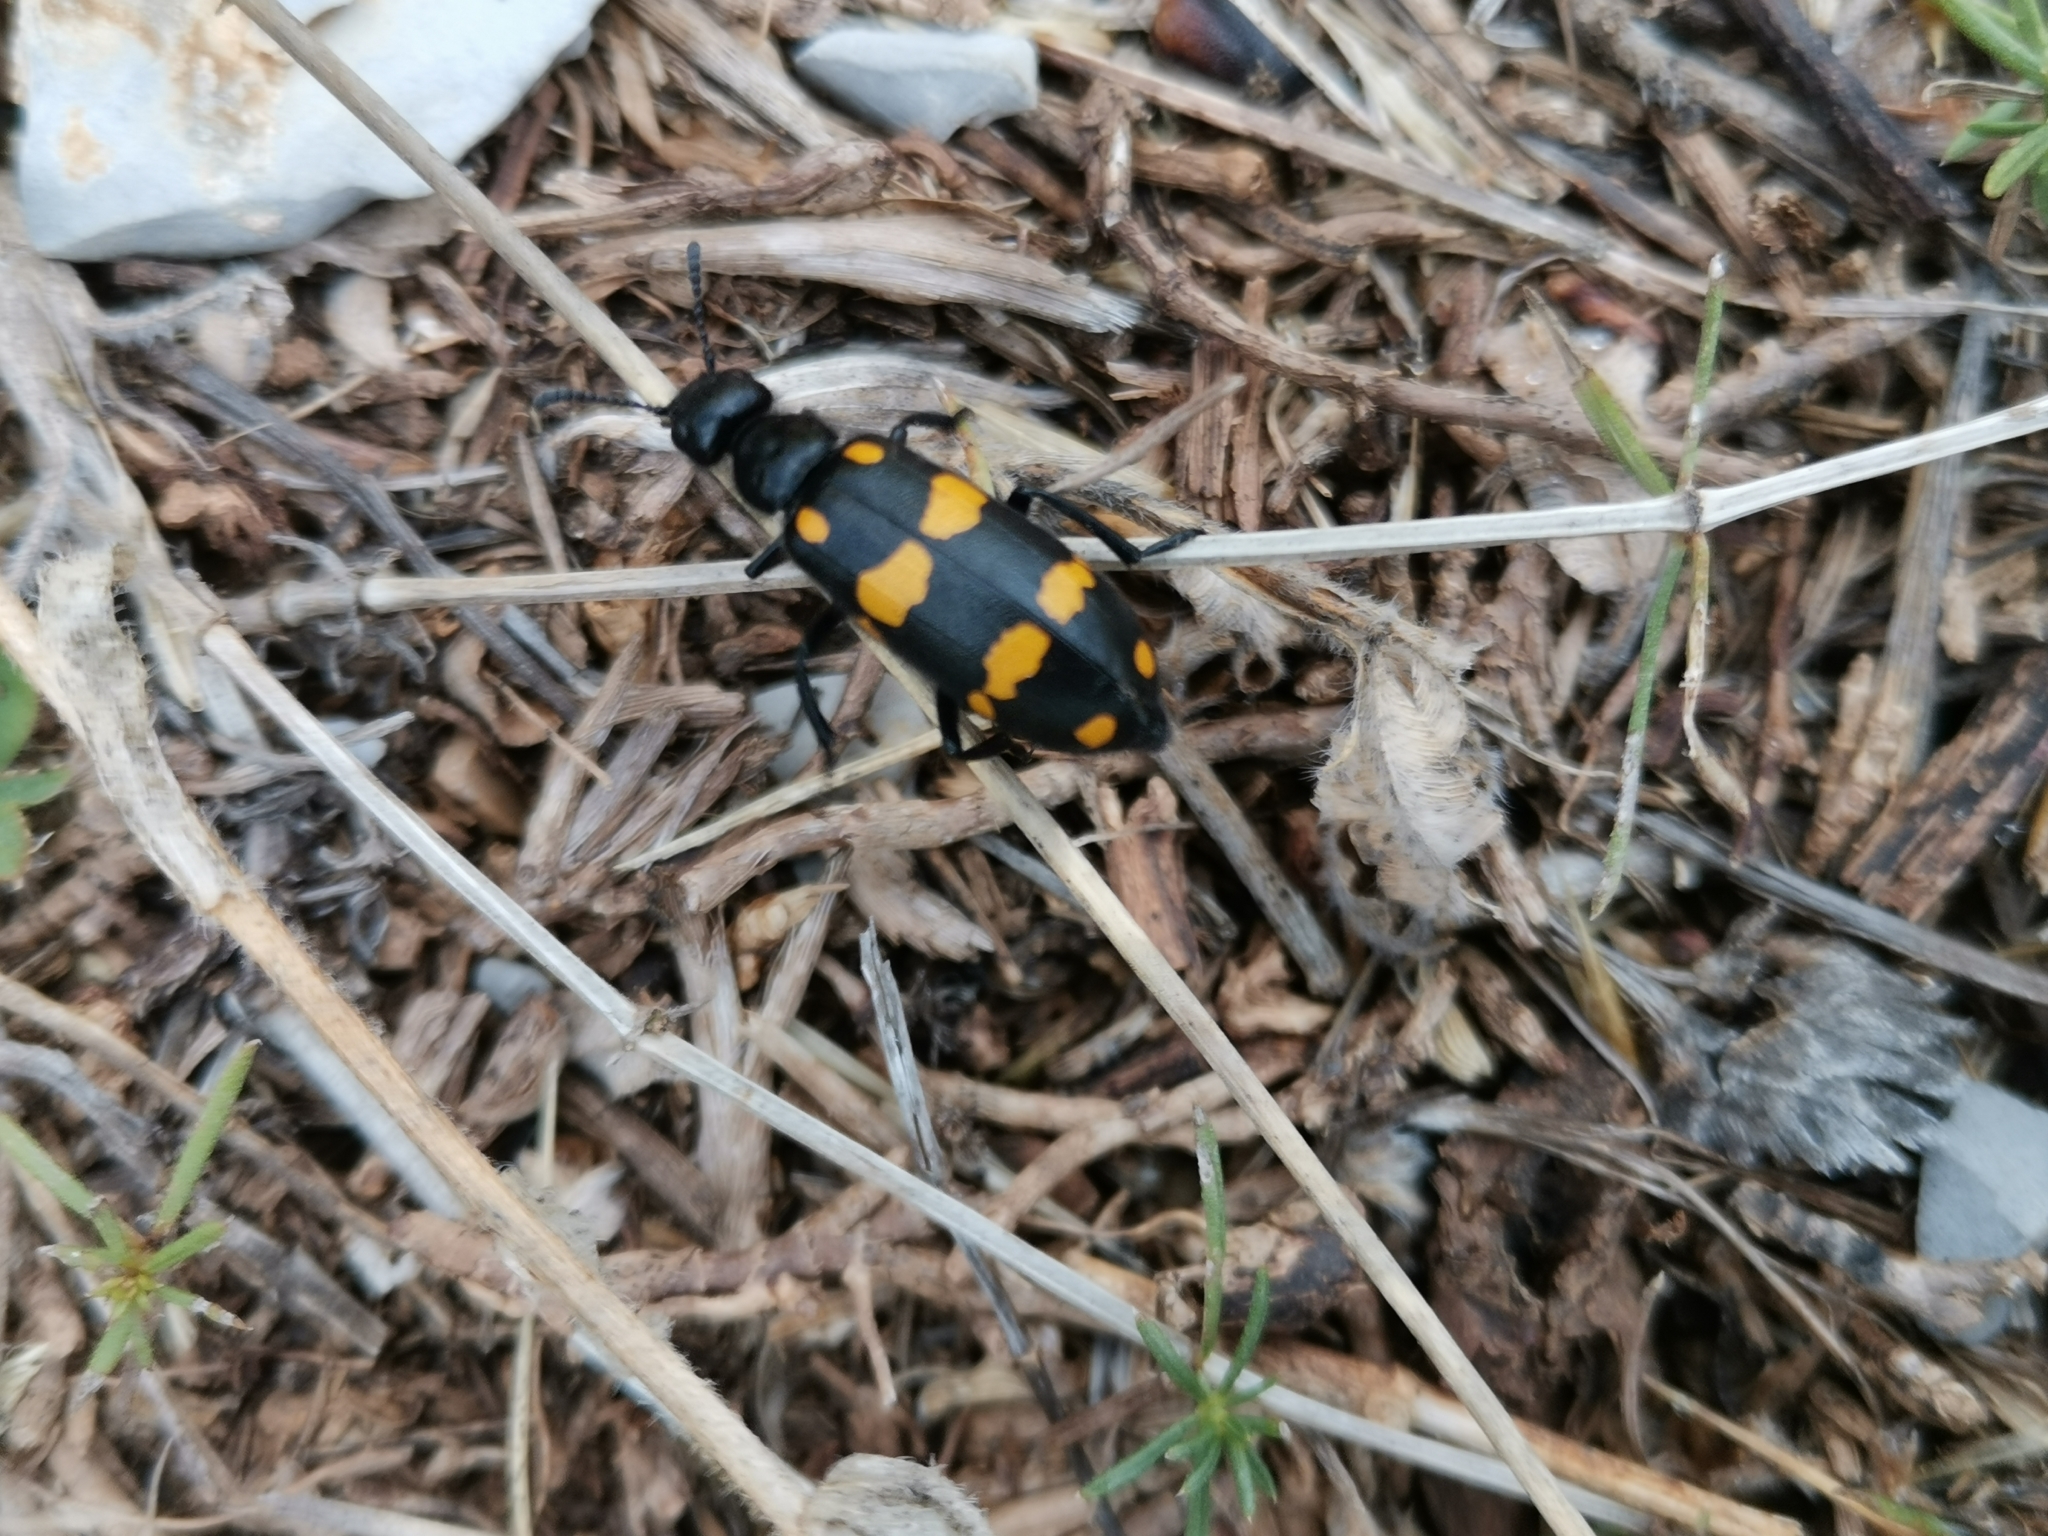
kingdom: Animalia
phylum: Arthropoda
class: Insecta
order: Coleoptera
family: Meloidae
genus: Hycleus
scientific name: Hycleus polymorphus
